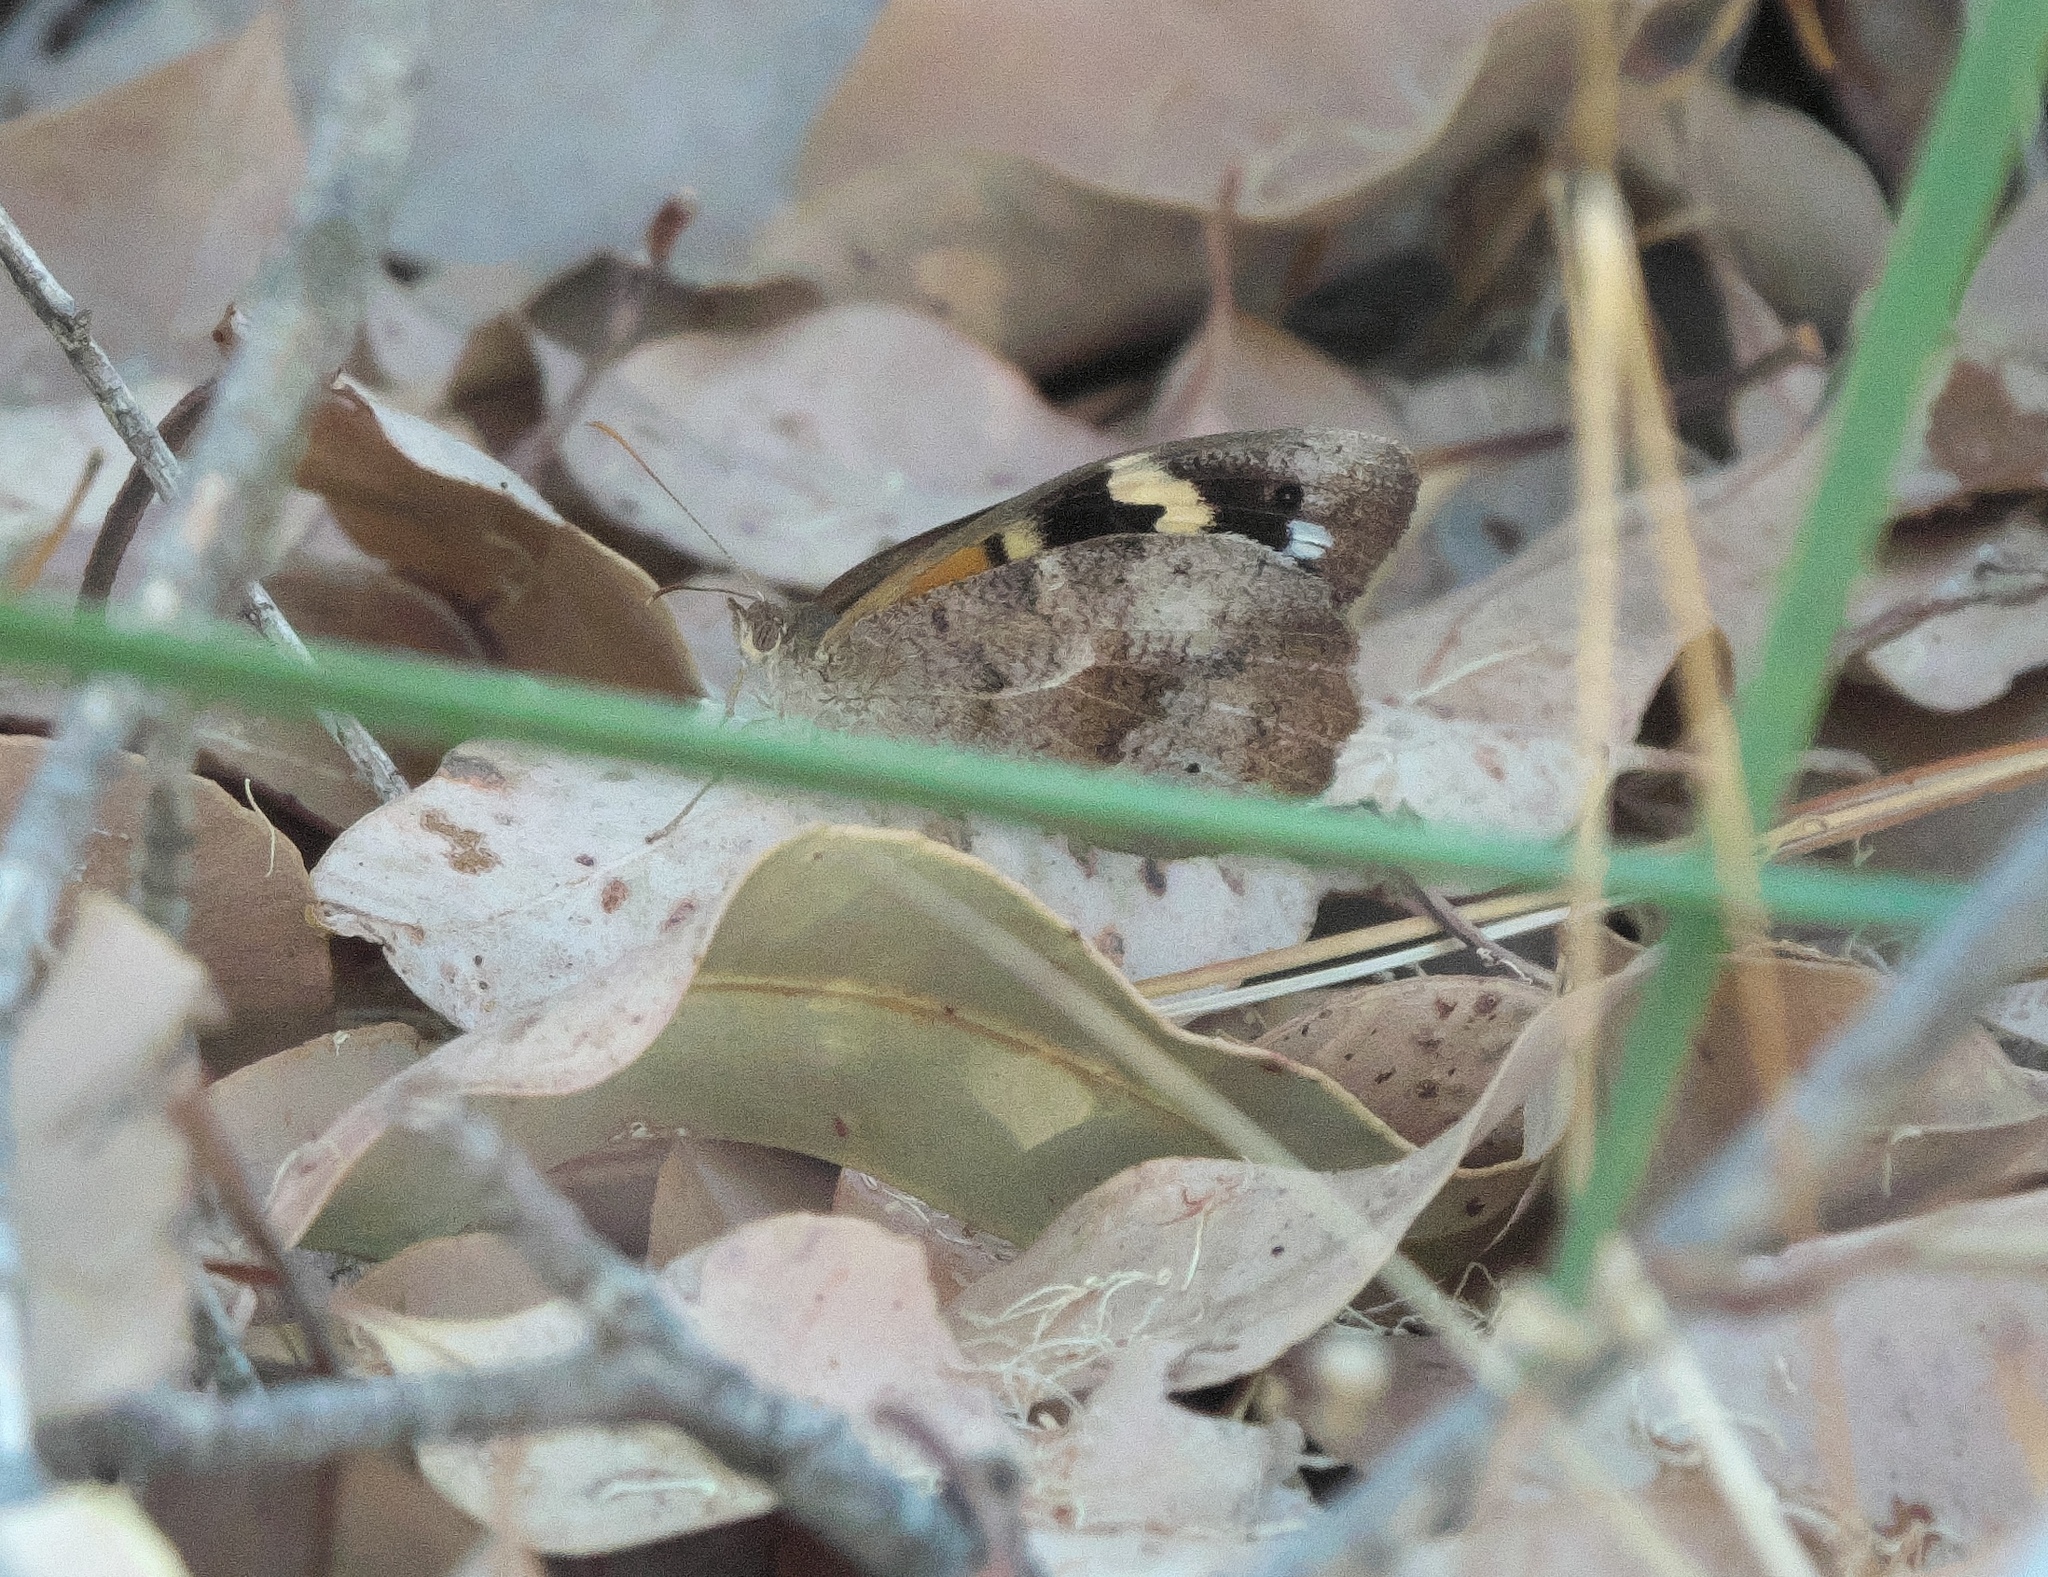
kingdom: Animalia
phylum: Arthropoda
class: Insecta
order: Lepidoptera
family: Nymphalidae
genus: Heteronympha
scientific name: Heteronympha merope
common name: Common brown
